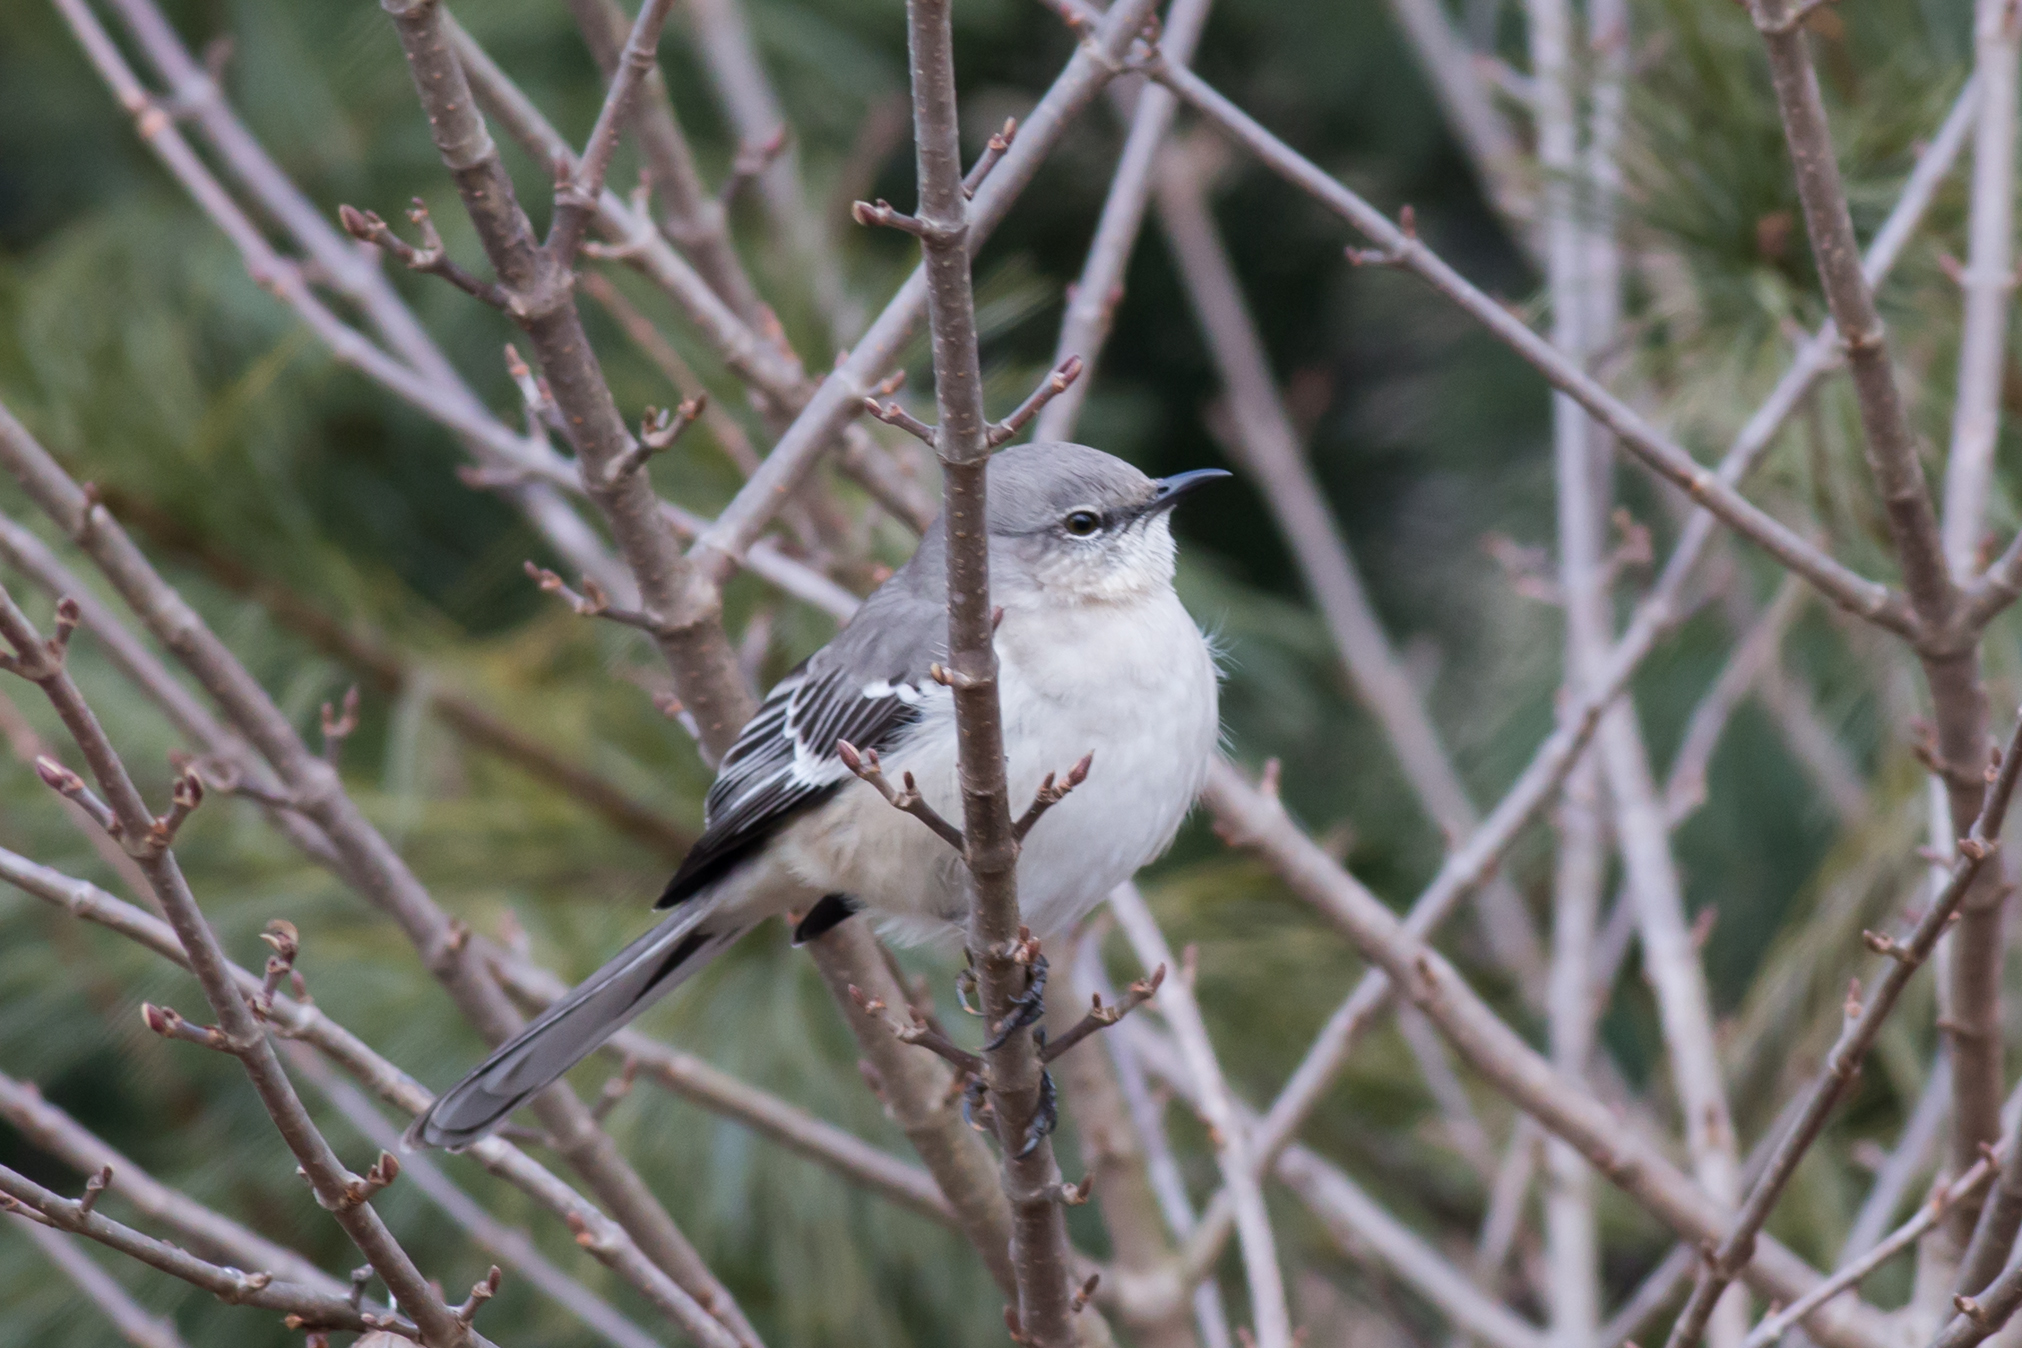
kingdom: Animalia
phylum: Chordata
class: Aves
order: Passeriformes
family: Mimidae
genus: Mimus
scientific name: Mimus polyglottos
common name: Northern mockingbird
